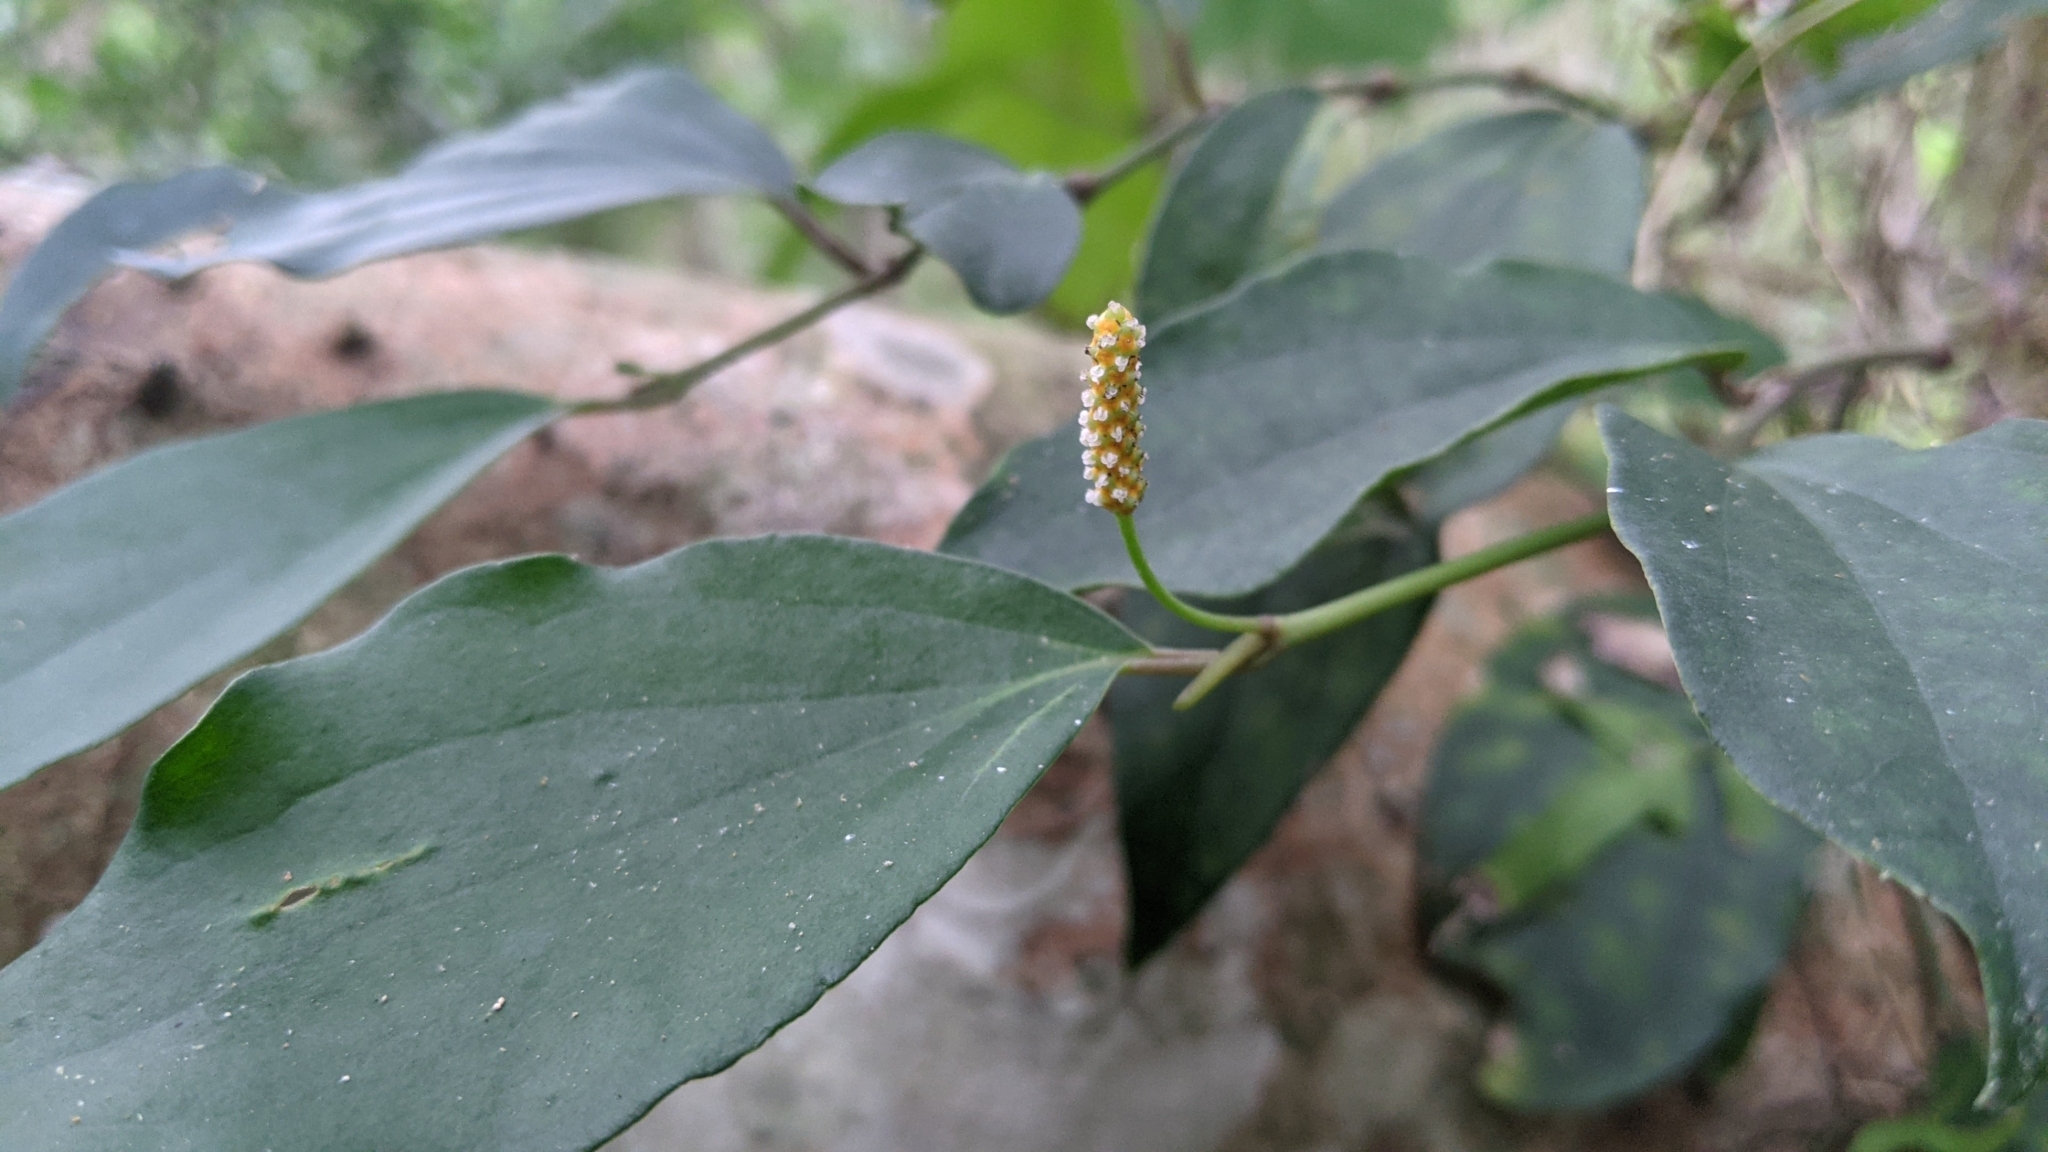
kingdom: Plantae
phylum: Tracheophyta
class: Magnoliopsida
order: Piperales
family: Piperaceae
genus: Piper
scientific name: Piper kadsura
